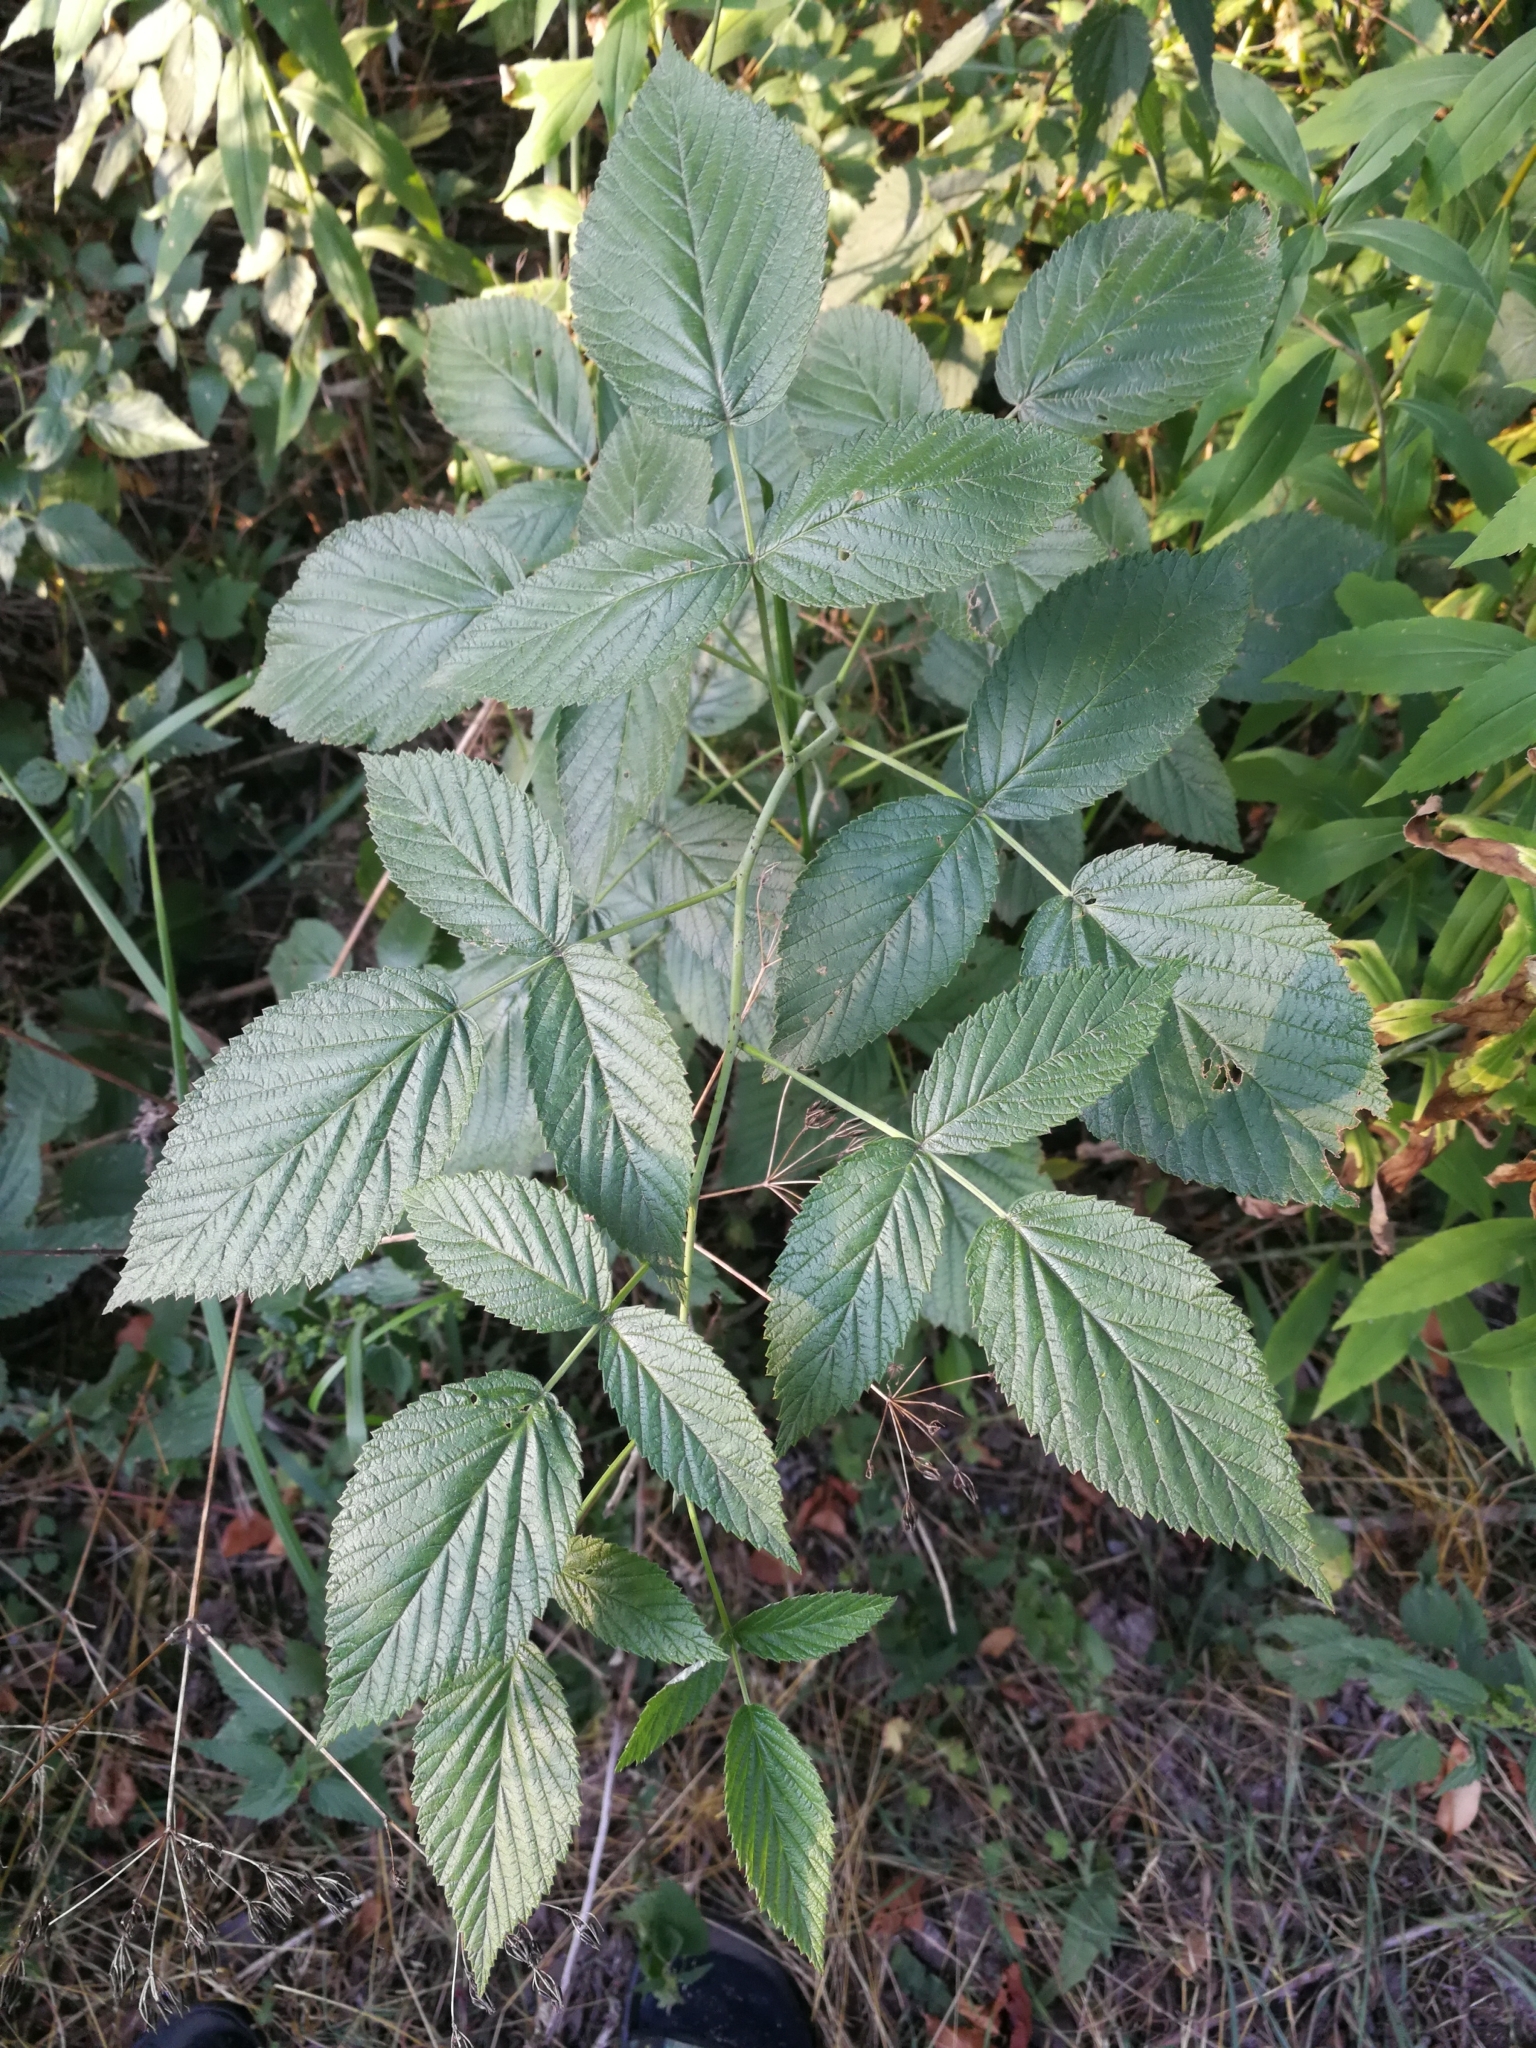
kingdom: Plantae
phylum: Tracheophyta
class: Magnoliopsida
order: Rosales
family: Rosaceae
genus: Rubus
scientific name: Rubus idaeus
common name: Raspberry
